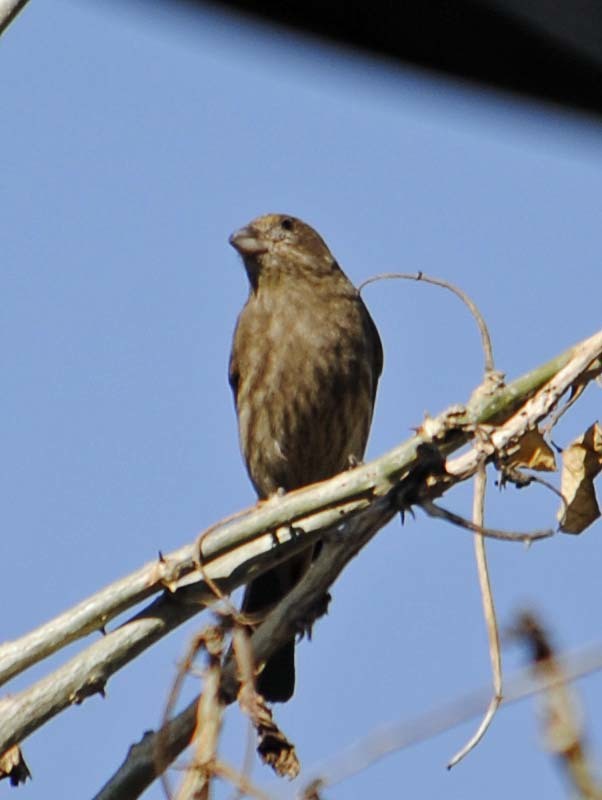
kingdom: Animalia
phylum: Chordata
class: Aves
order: Passeriformes
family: Fringillidae
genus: Haemorhous
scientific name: Haemorhous mexicanus
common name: House finch
